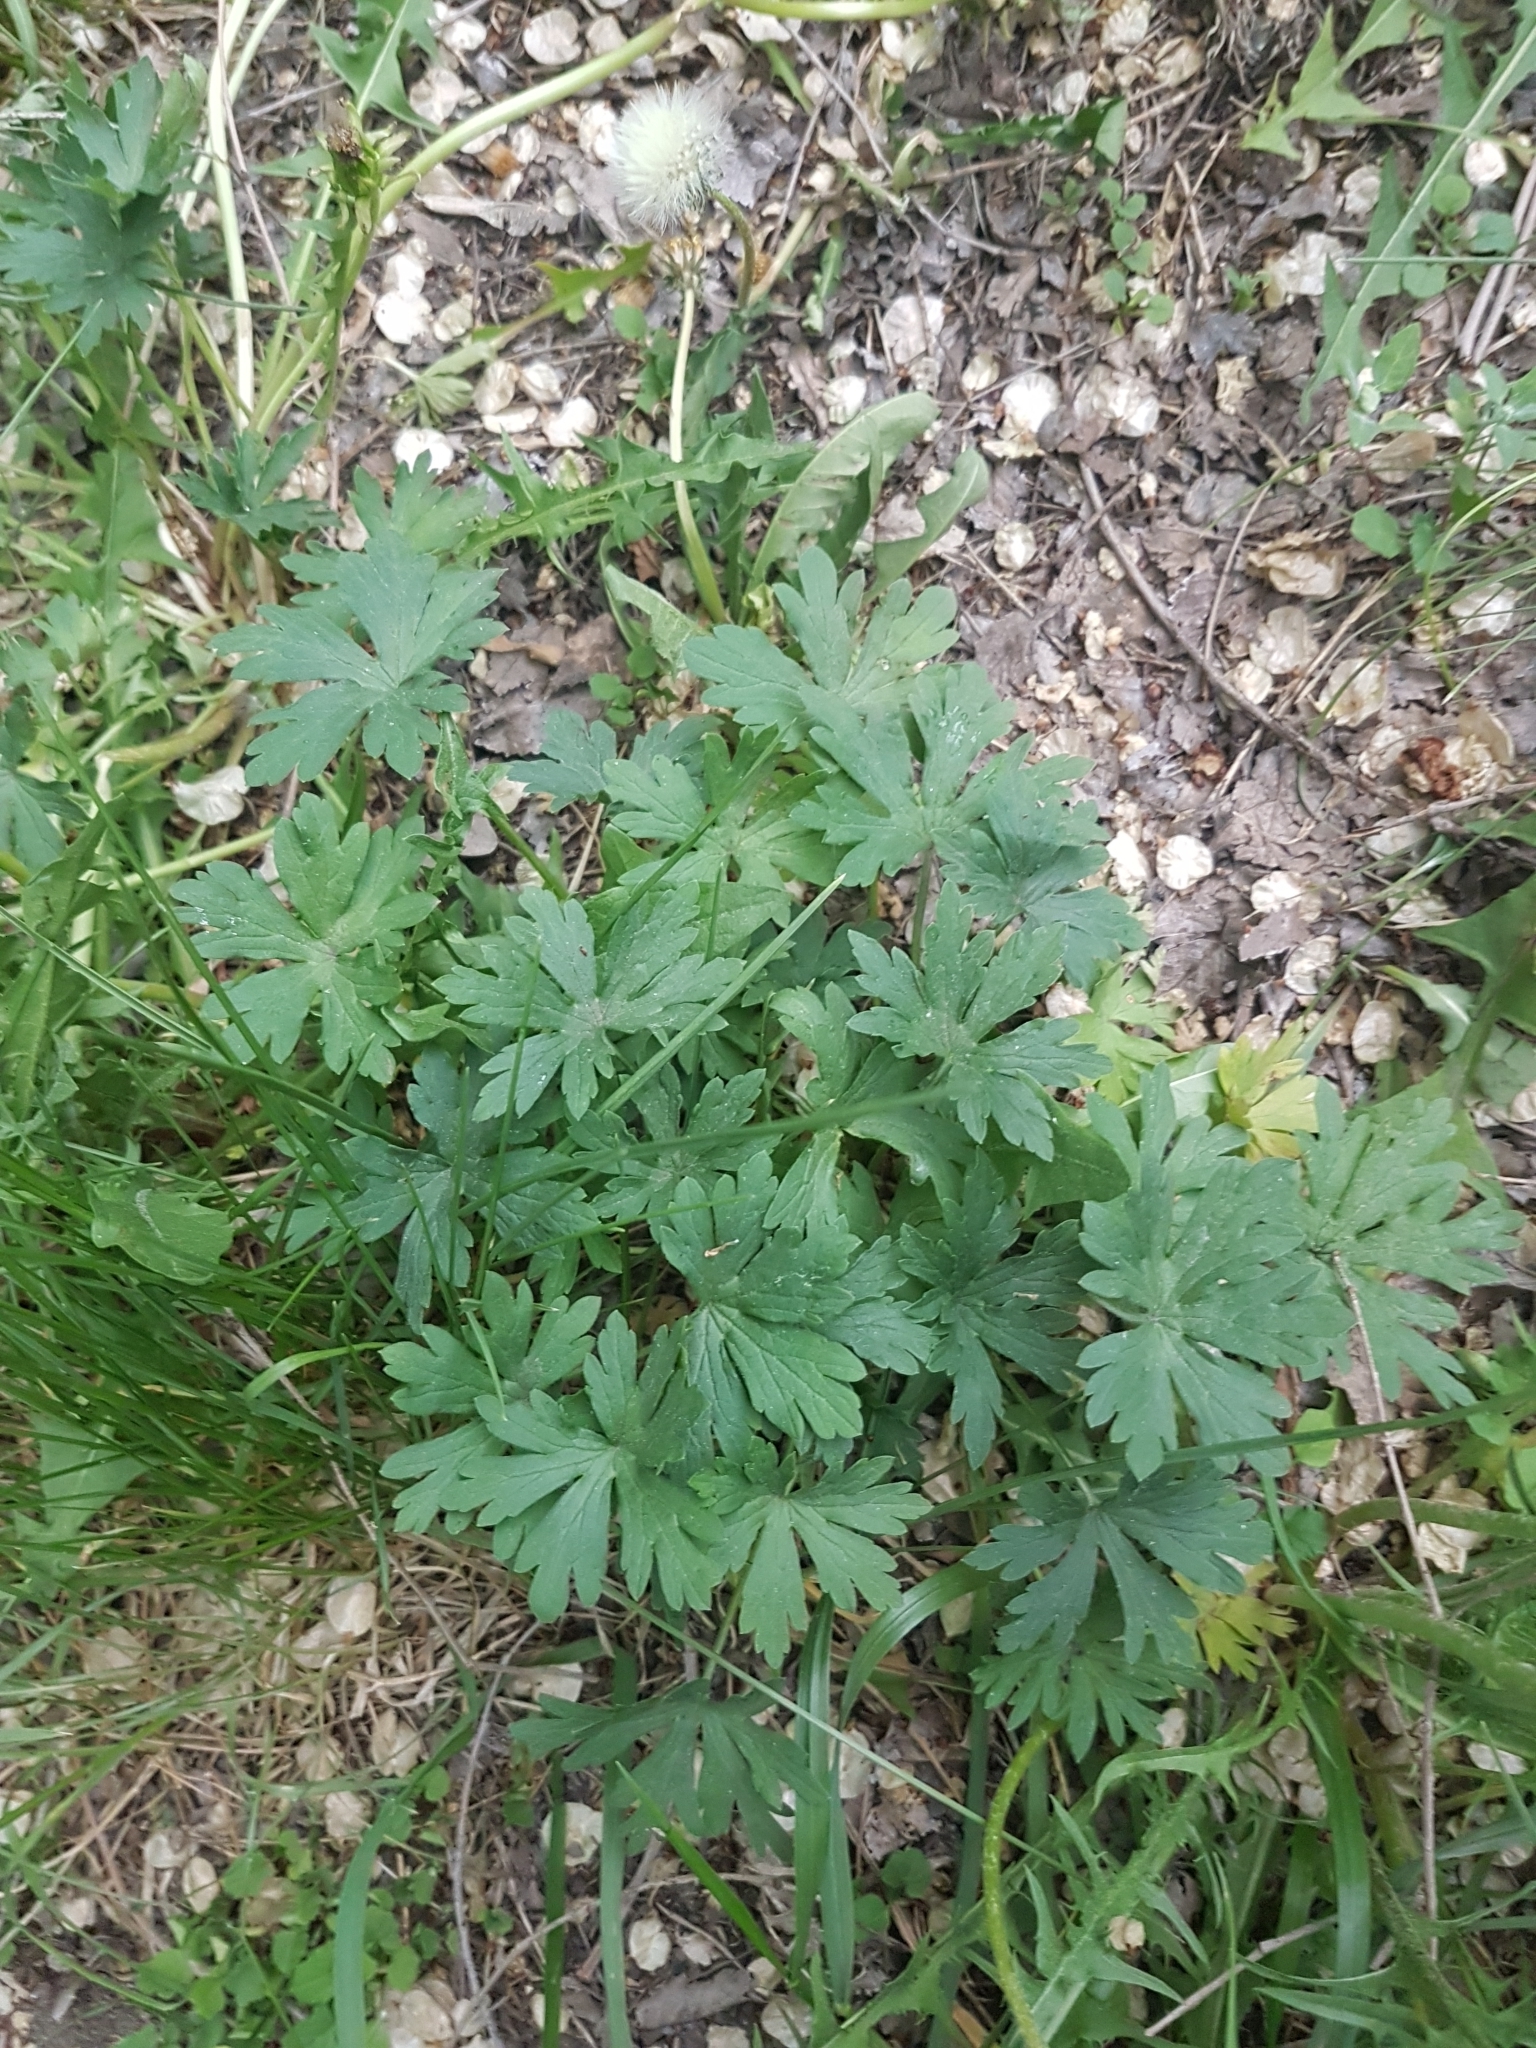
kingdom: Plantae
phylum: Tracheophyta
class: Magnoliopsida
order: Geraniales
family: Geraniaceae
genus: Geranium
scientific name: Geranium sibiricum
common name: Siberian crane's-bill
